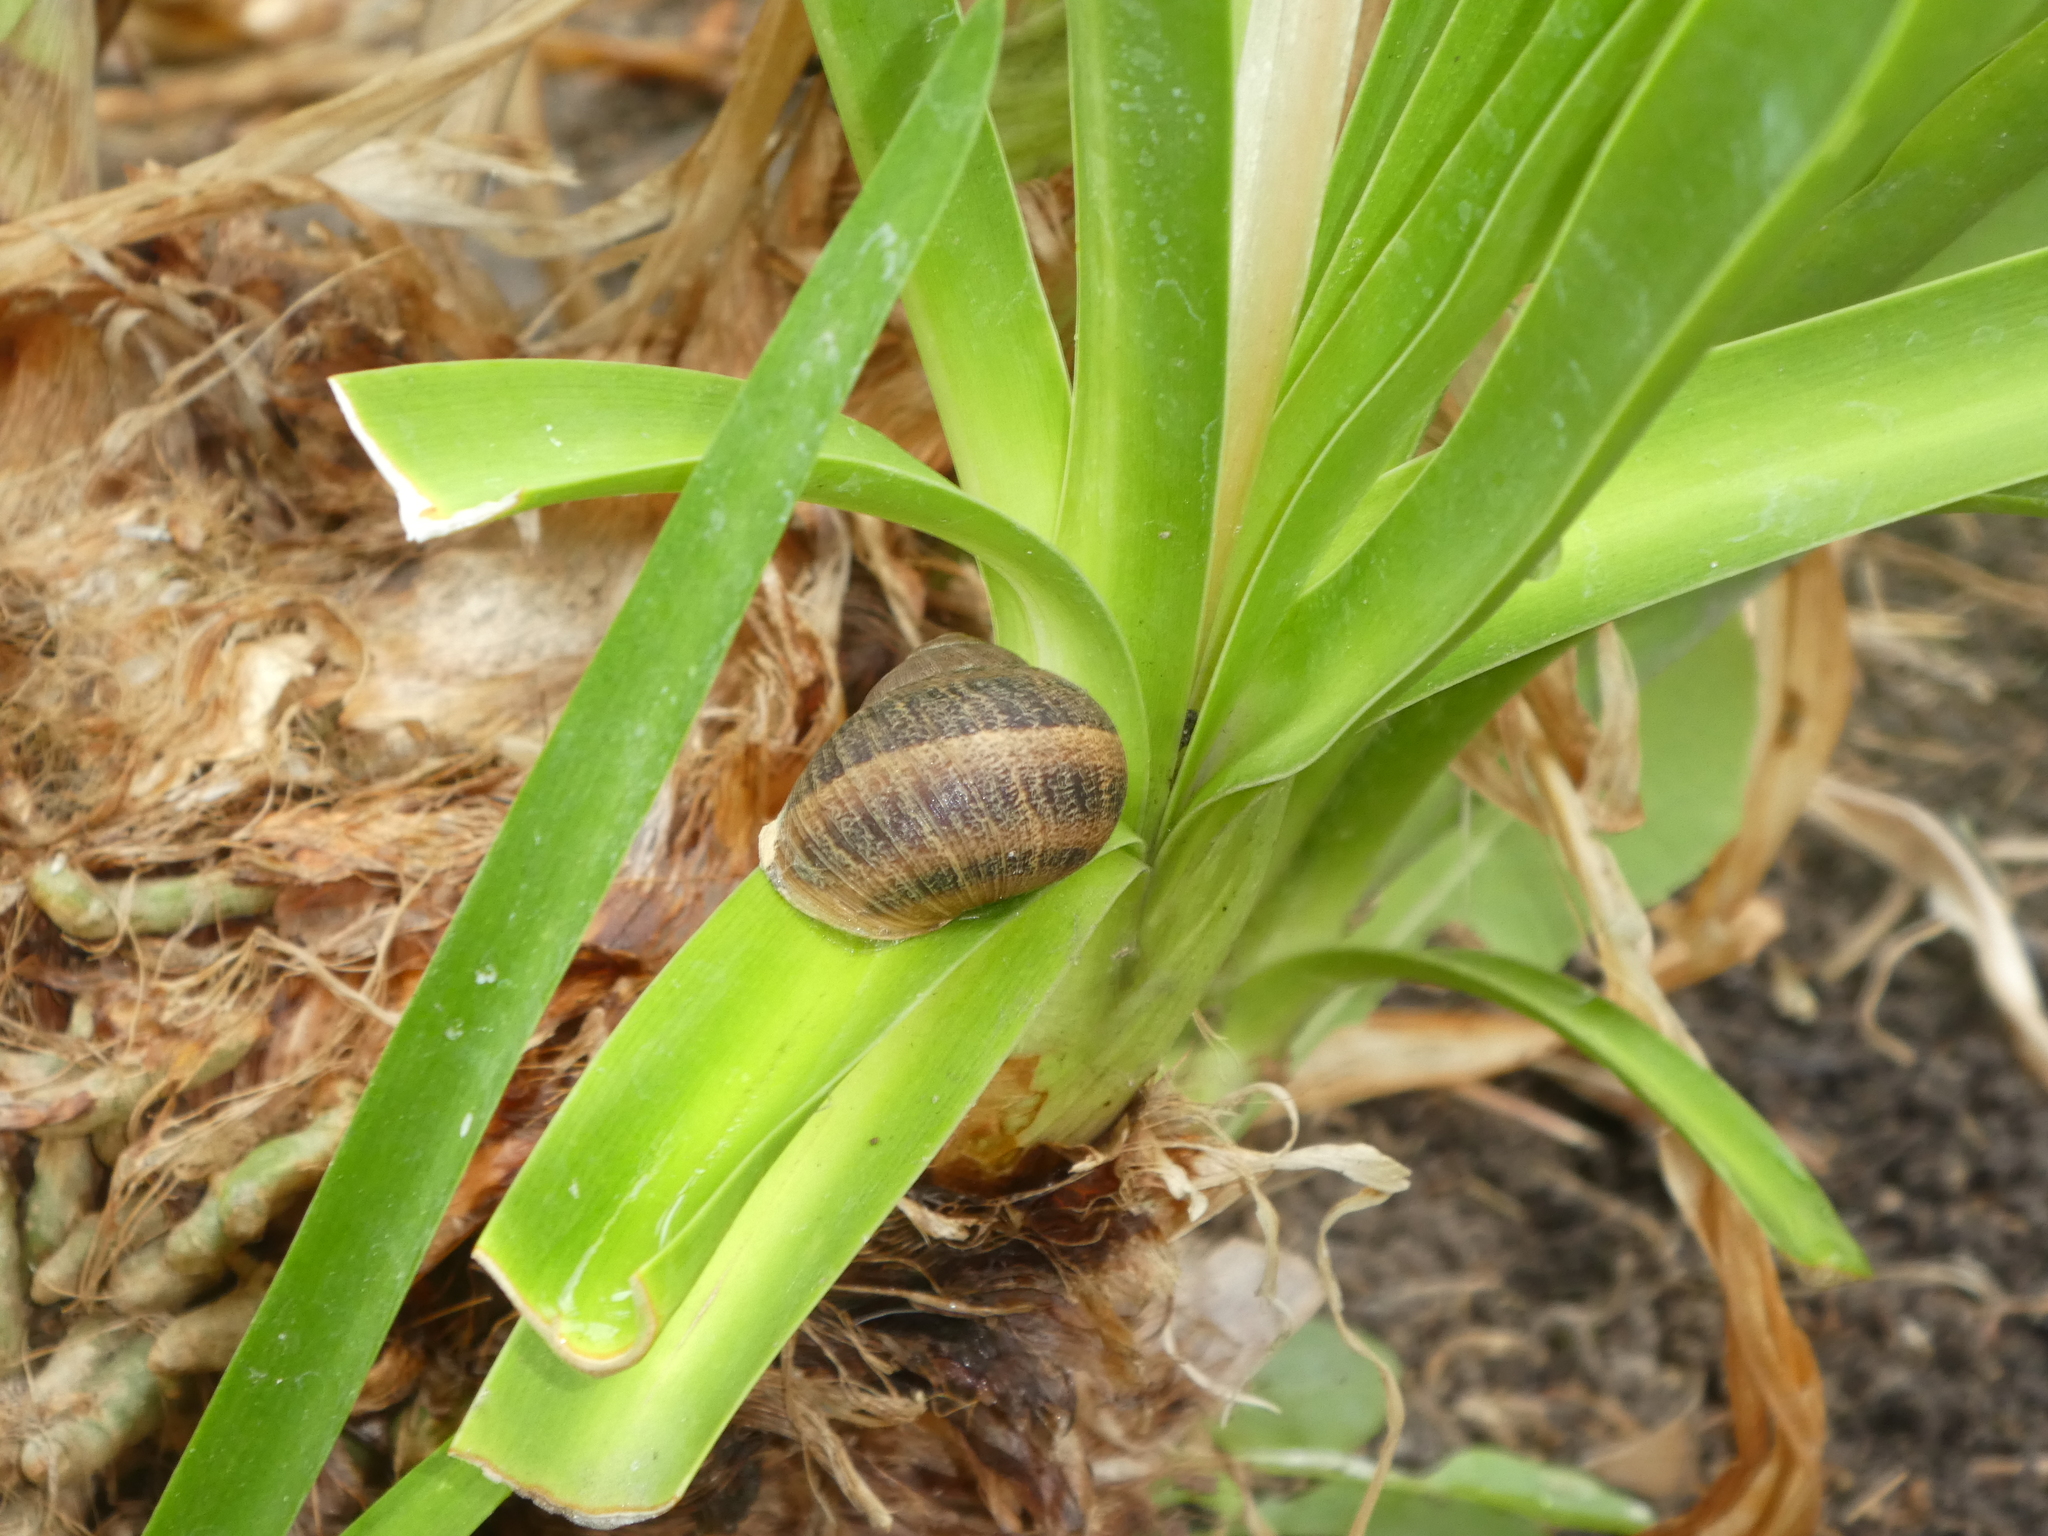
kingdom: Animalia
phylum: Mollusca
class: Gastropoda
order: Stylommatophora
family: Helicidae
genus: Cornu
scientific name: Cornu aspersum
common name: Brown garden snail
